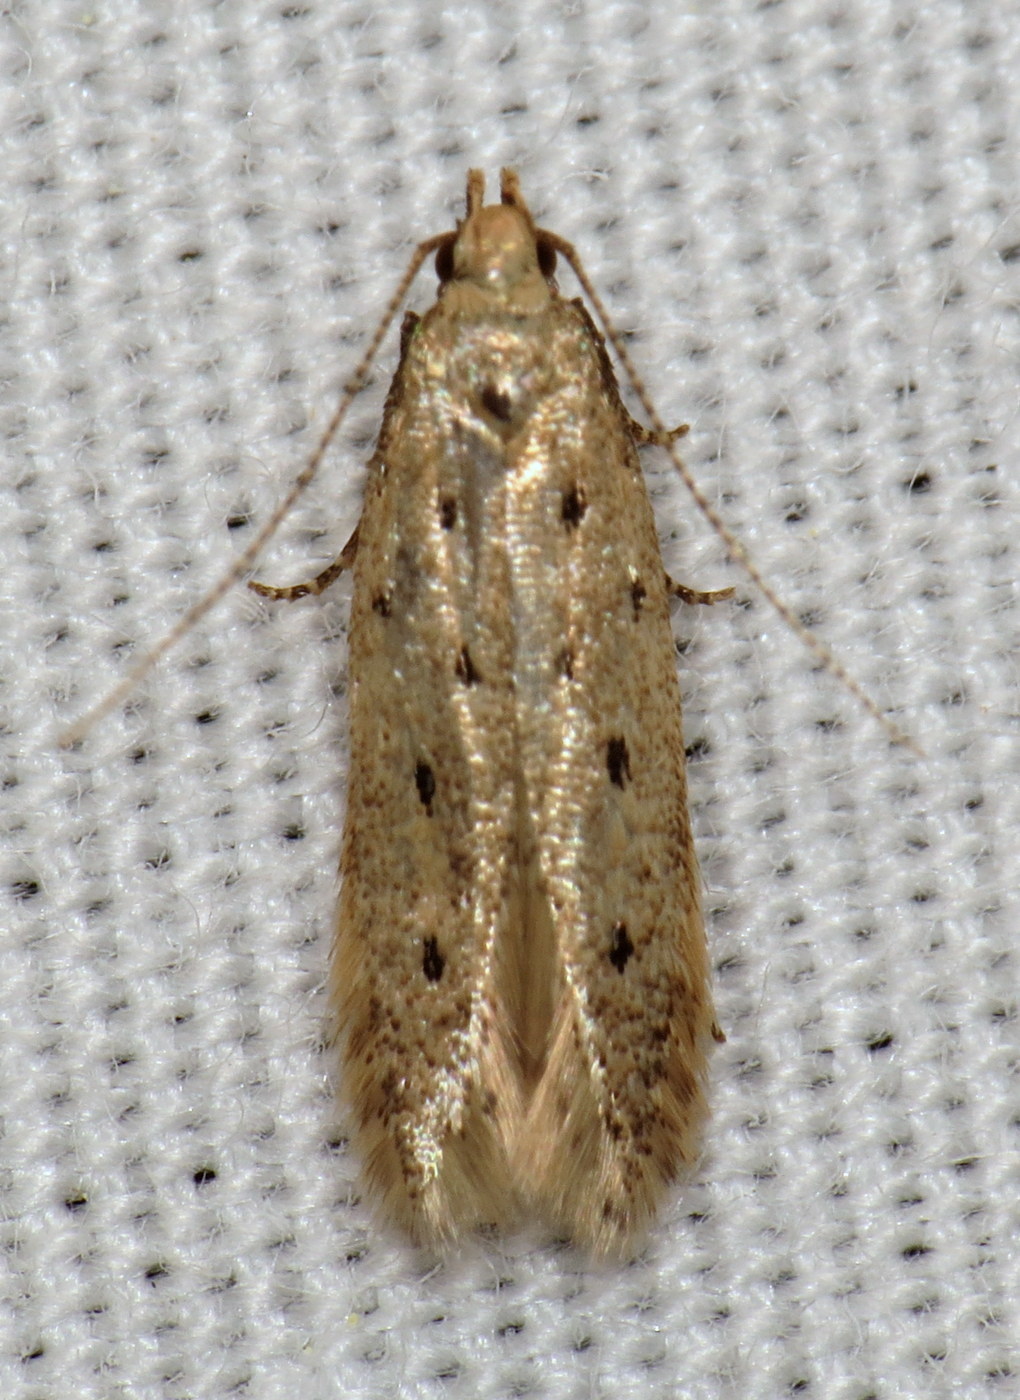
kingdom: Animalia
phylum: Arthropoda
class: Insecta
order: Lepidoptera
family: Gelechiidae
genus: Monochroa
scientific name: Monochroa quinquepunctella
